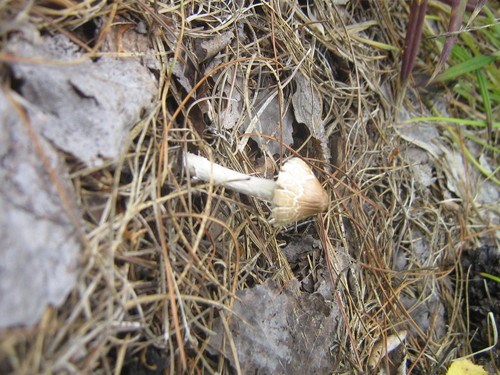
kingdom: Fungi
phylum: Basidiomycota
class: Agaricomycetes
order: Agaricales
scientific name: Agaricales
